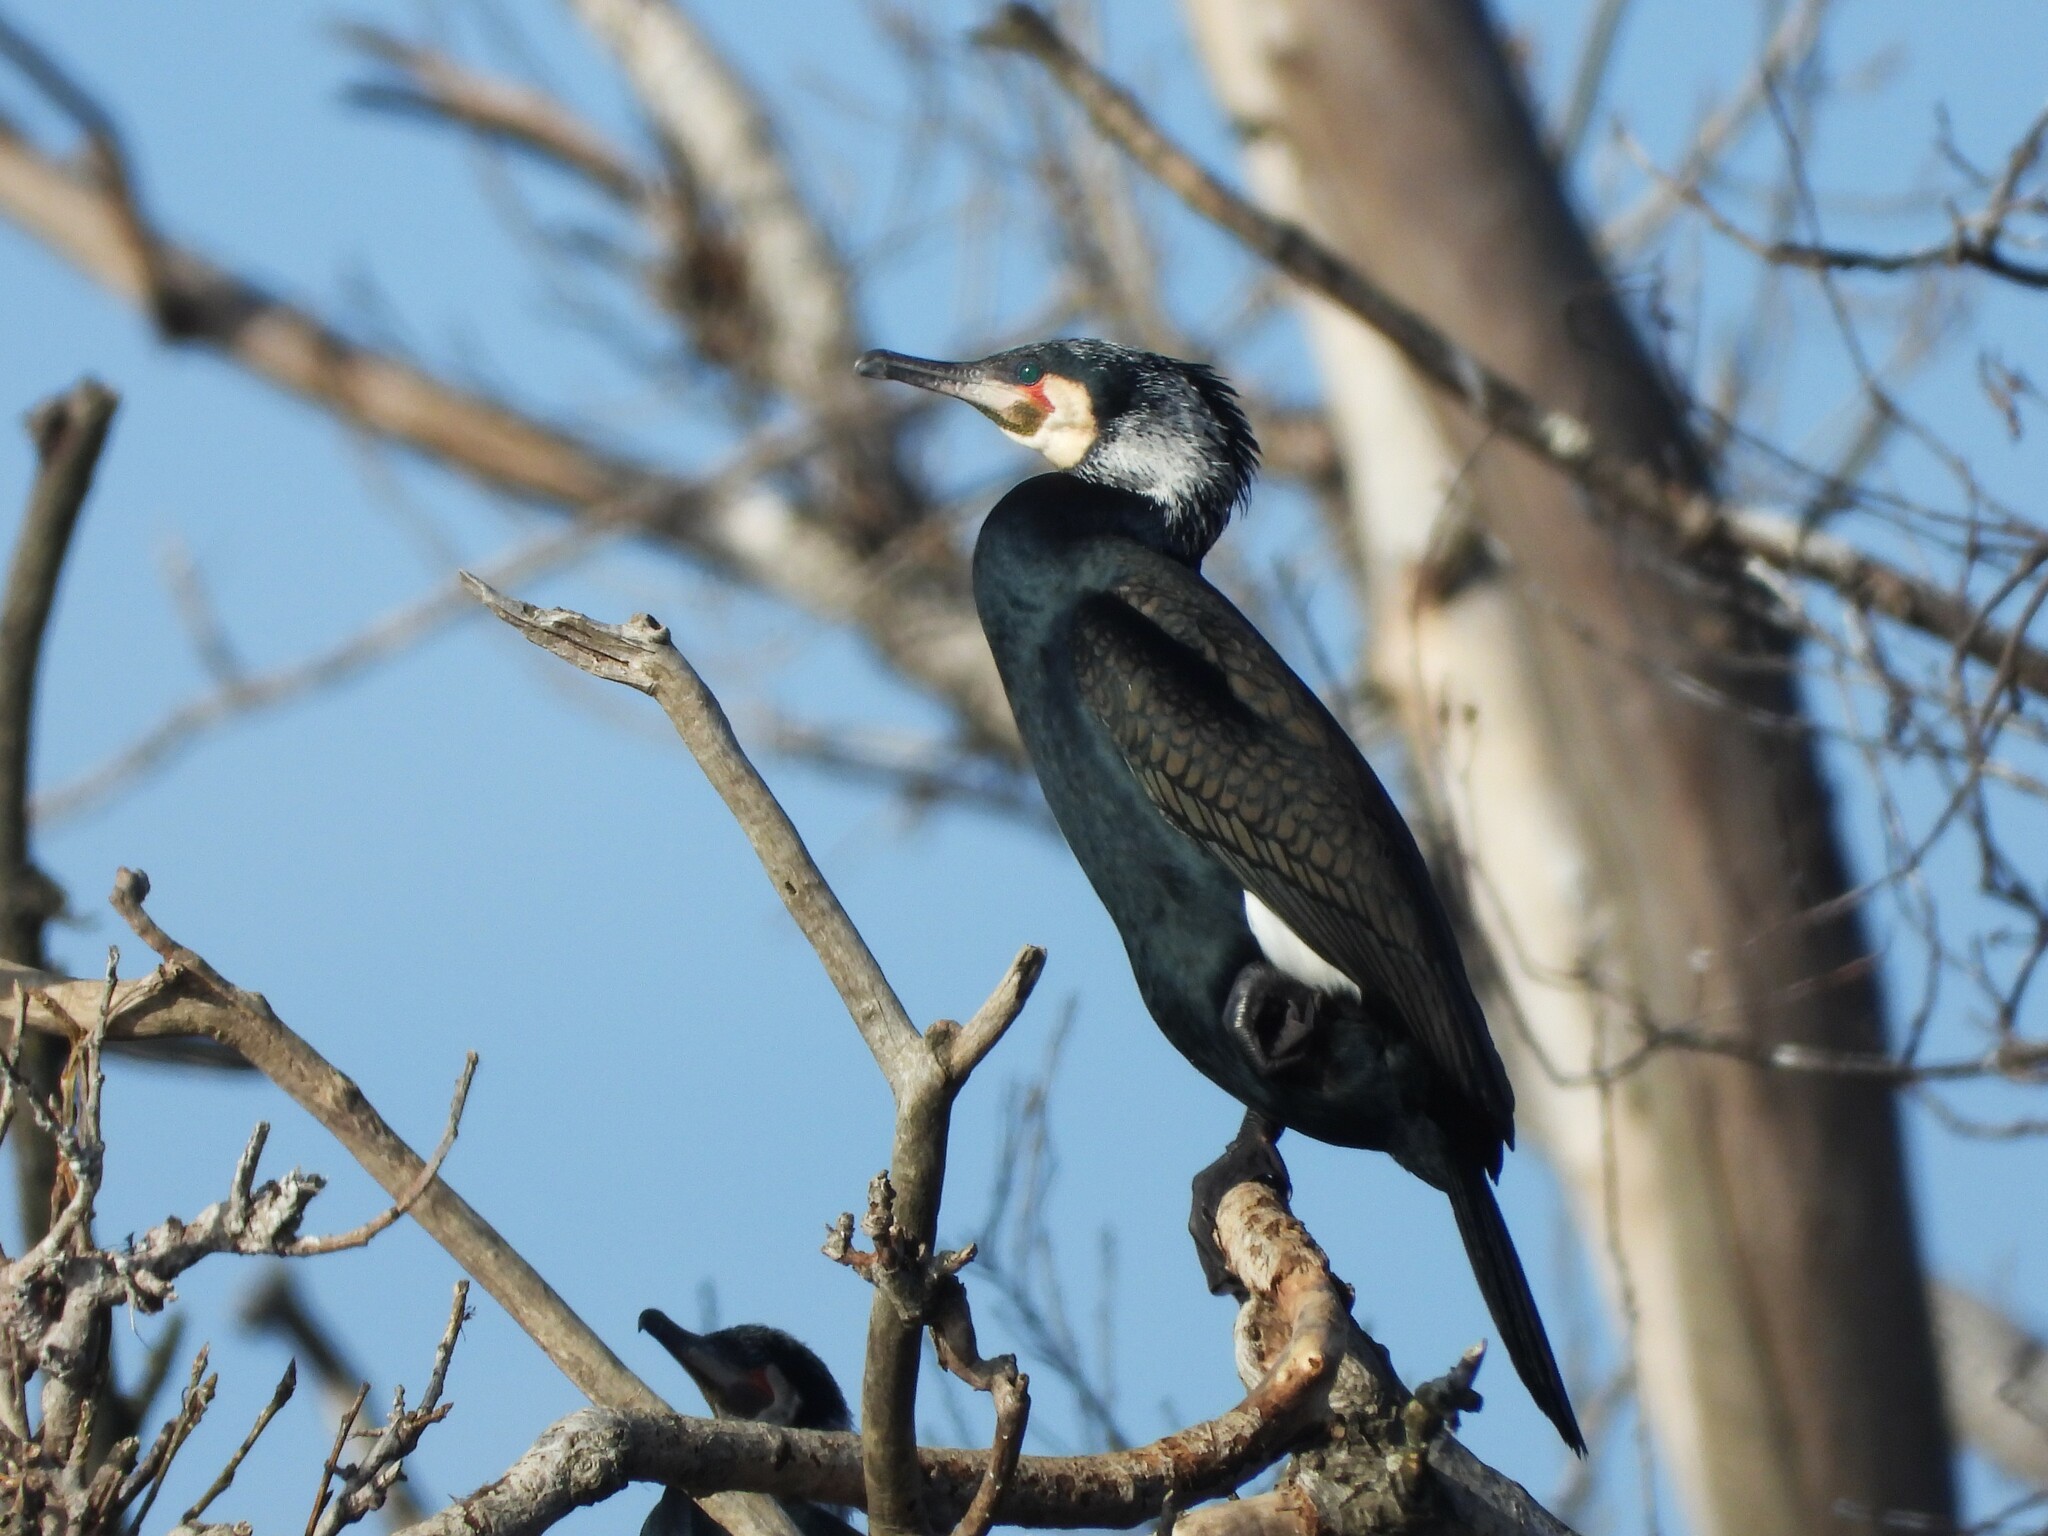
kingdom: Animalia
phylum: Chordata
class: Aves
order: Suliformes
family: Phalacrocoracidae
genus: Phalacrocorax
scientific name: Phalacrocorax carbo
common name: Great cormorant
